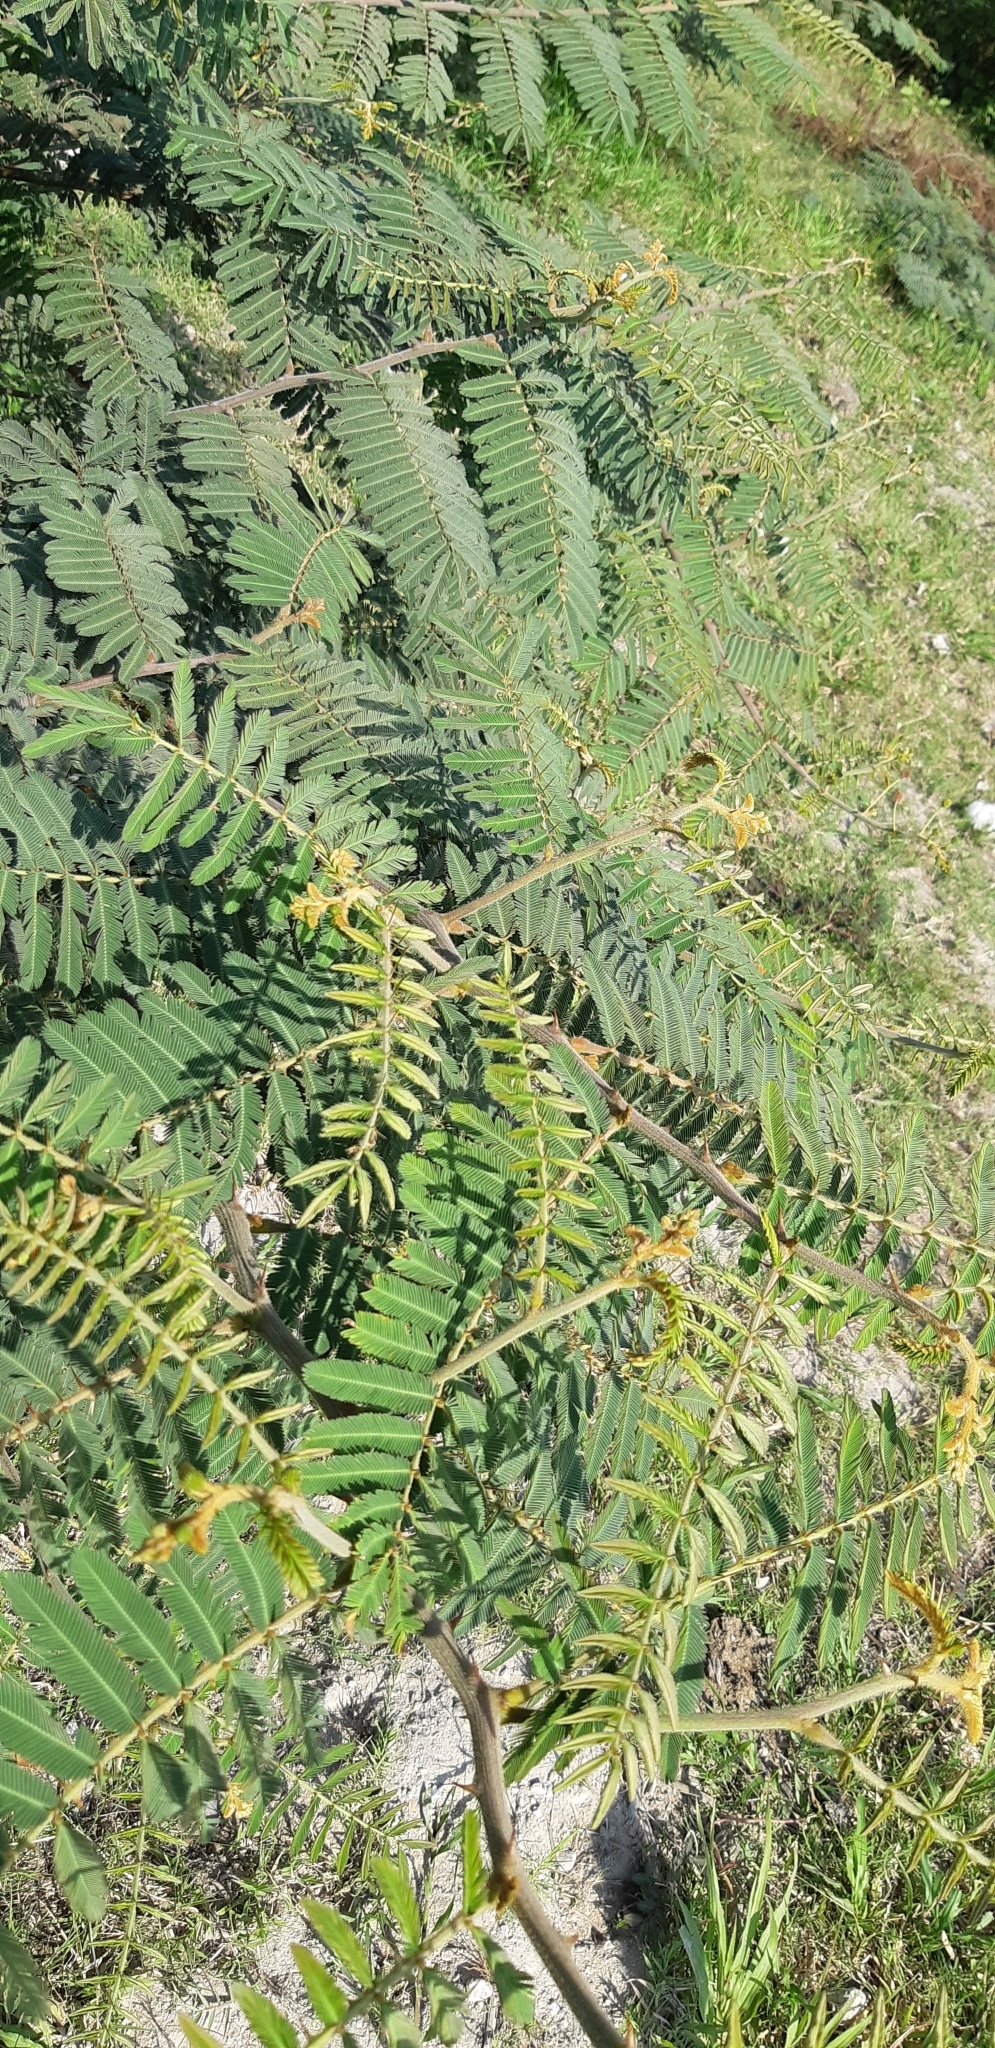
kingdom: Plantae
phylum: Tracheophyta
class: Magnoliopsida
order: Fabales
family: Fabaceae
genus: Mimosa
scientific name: Mimosa pigra
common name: Black mimosa
